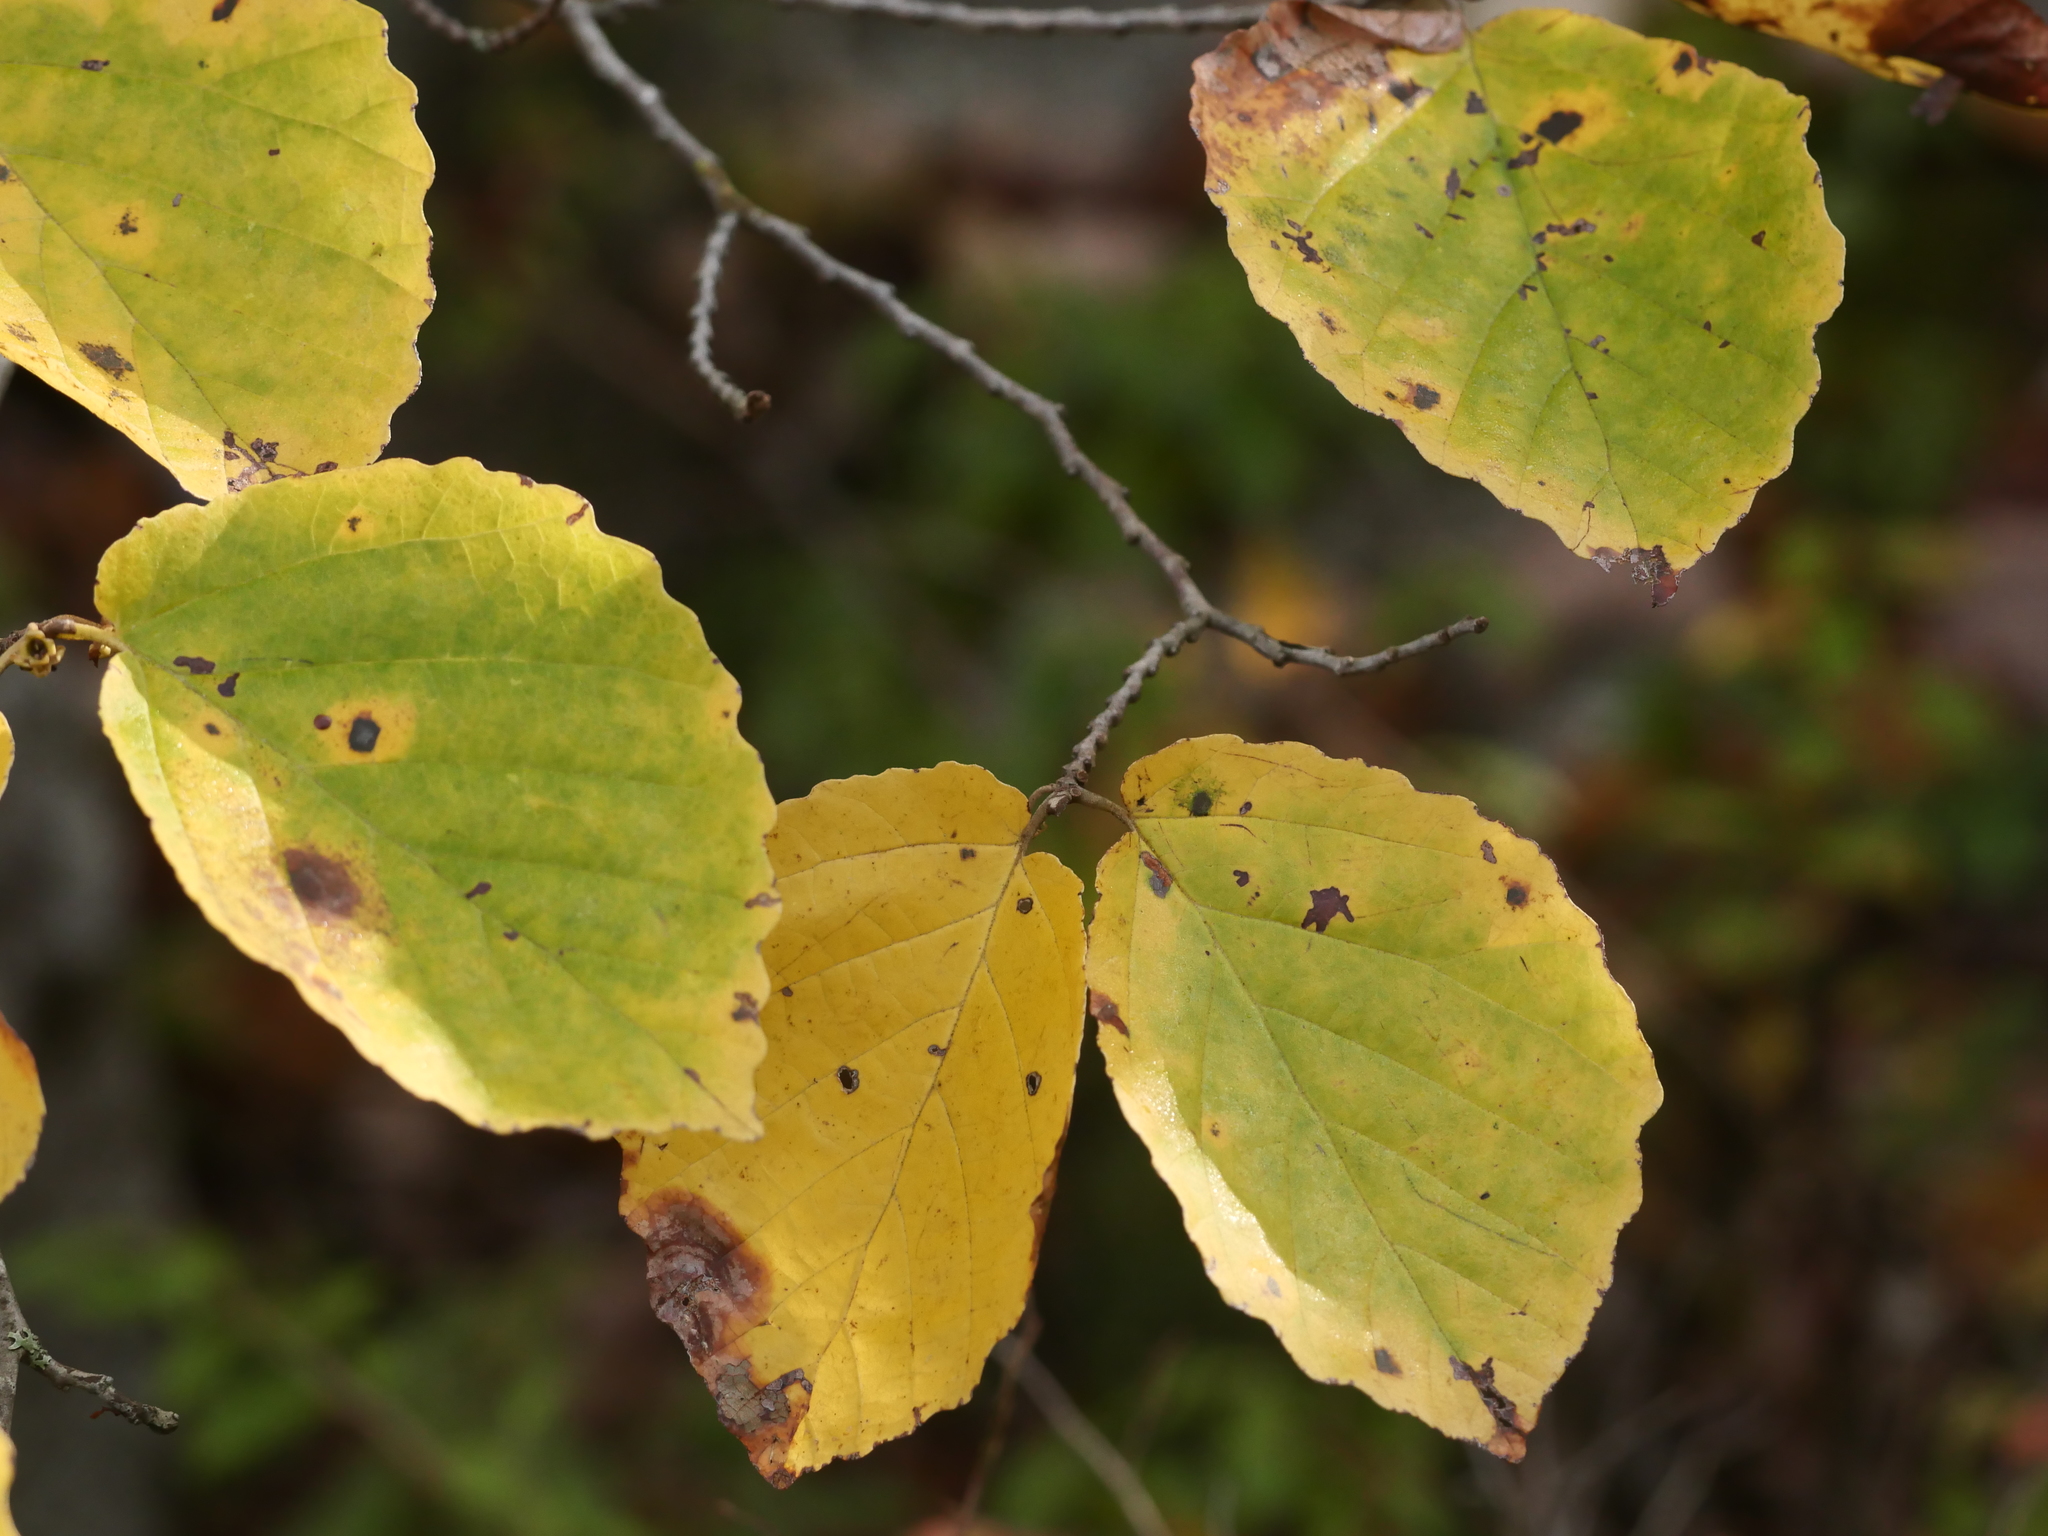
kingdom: Plantae
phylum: Tracheophyta
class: Magnoliopsida
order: Saxifragales
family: Hamamelidaceae
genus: Hamamelis
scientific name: Hamamelis virginiana
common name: Witch-hazel
